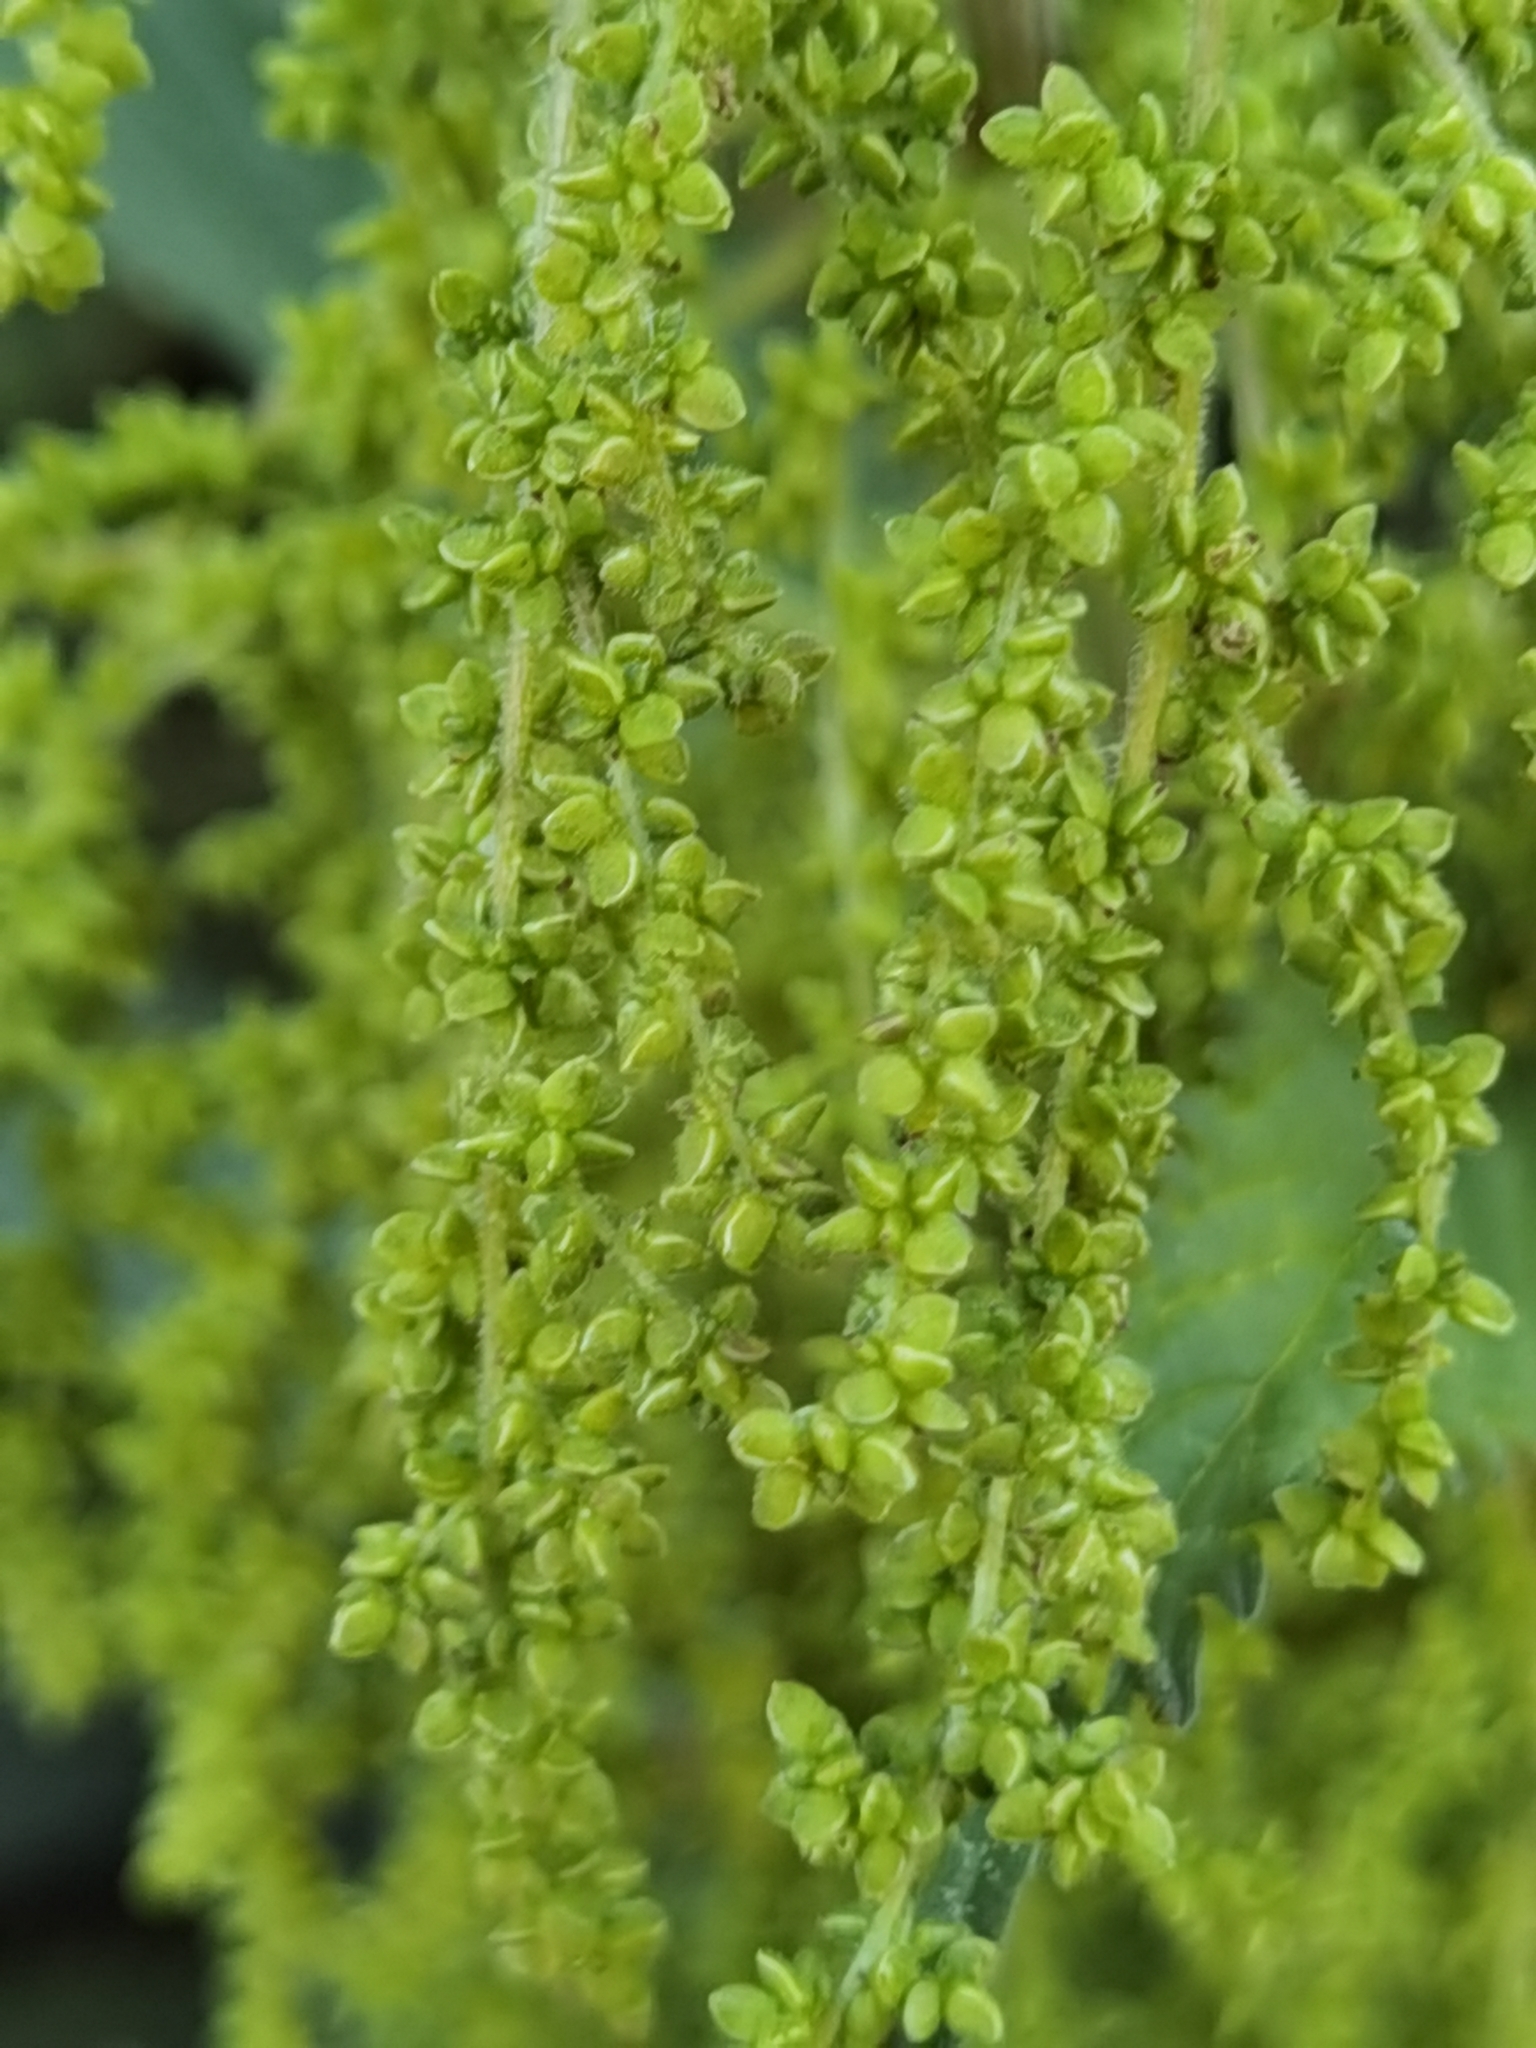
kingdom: Plantae
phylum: Tracheophyta
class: Magnoliopsida
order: Rosales
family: Urticaceae
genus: Urtica
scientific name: Urtica dioica
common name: Common nettle
